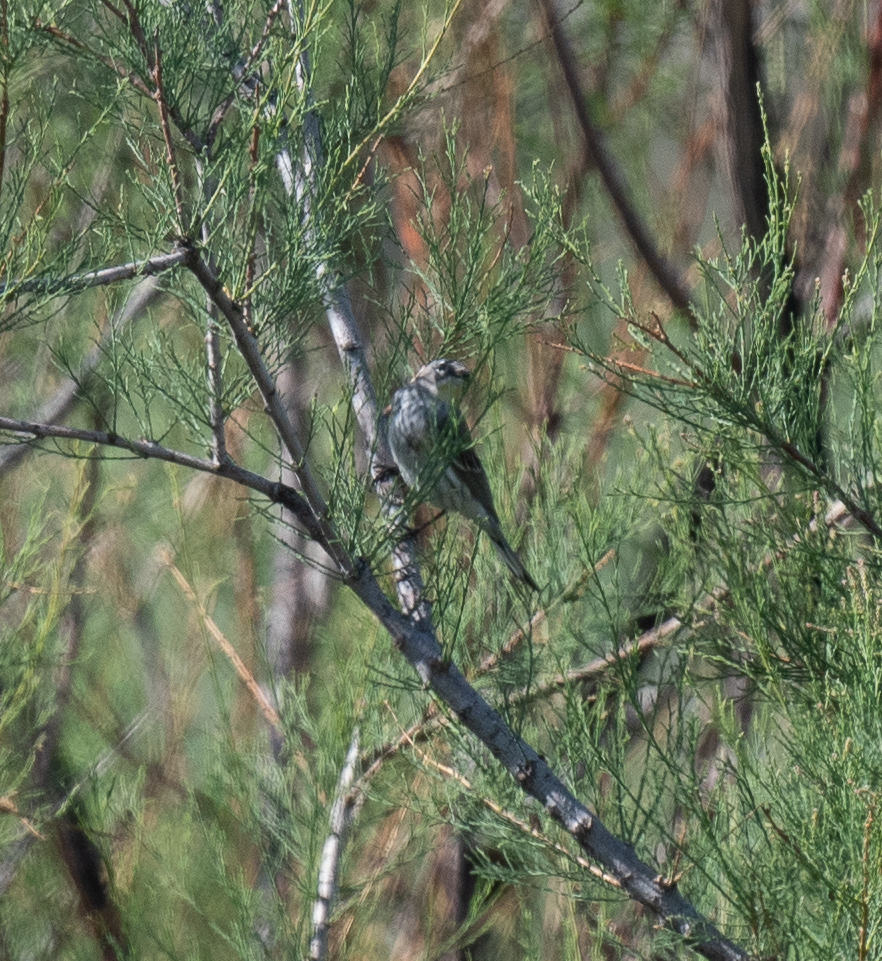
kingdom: Animalia
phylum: Chordata
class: Aves
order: Passeriformes
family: Parulidae
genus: Setophaga
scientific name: Setophaga coronata
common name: Myrtle warbler
